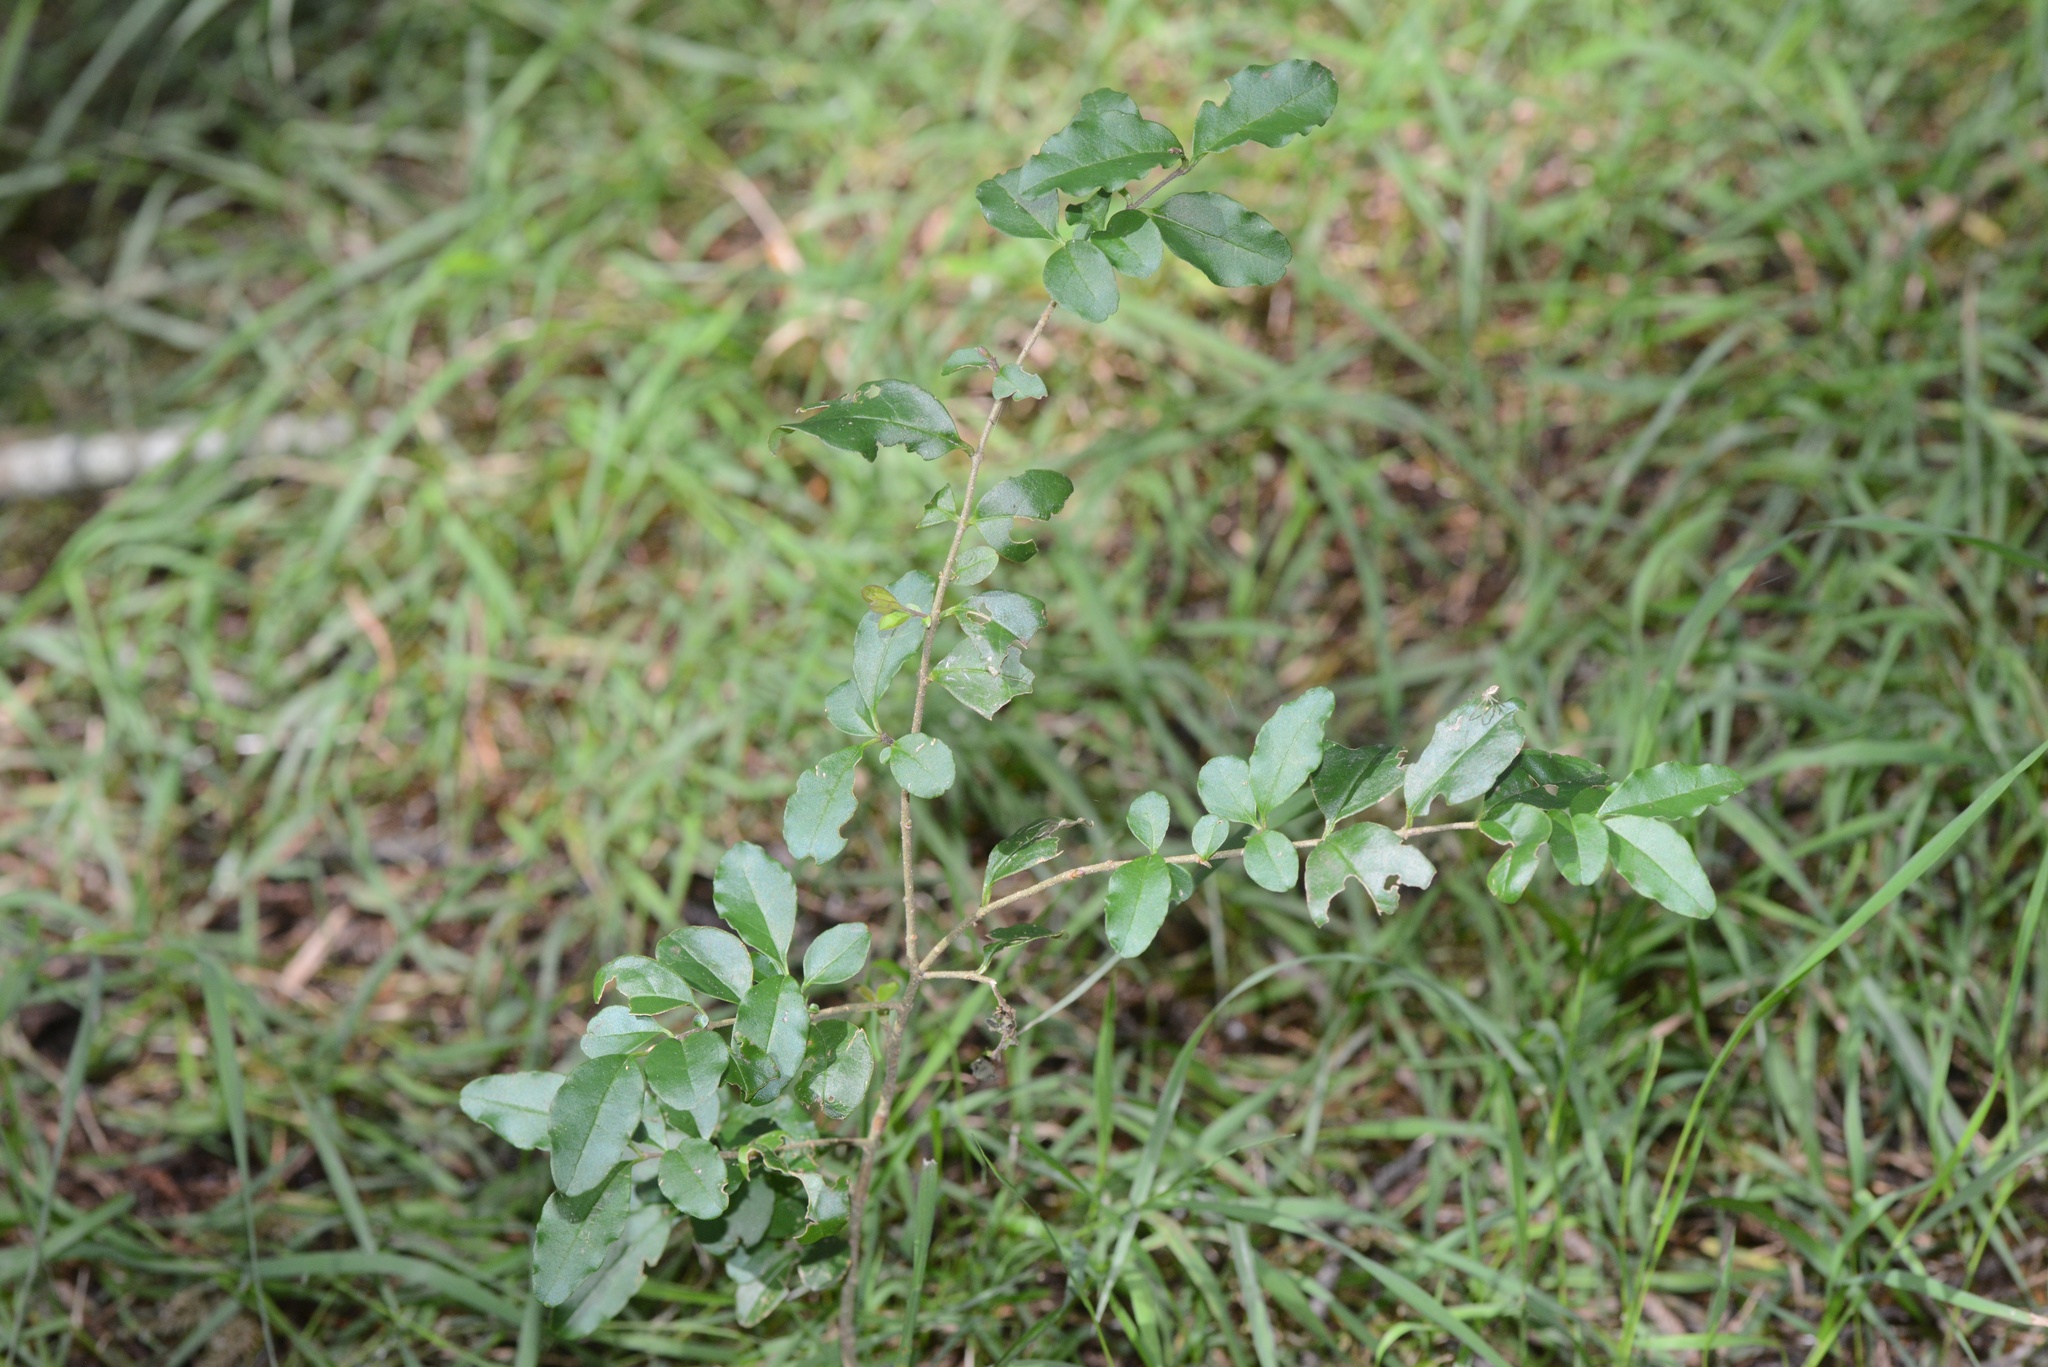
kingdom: Plantae
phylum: Tracheophyta
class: Magnoliopsida
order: Lamiales
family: Oleaceae
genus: Ligustrum
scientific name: Ligustrum sinense
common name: Chinese privet
